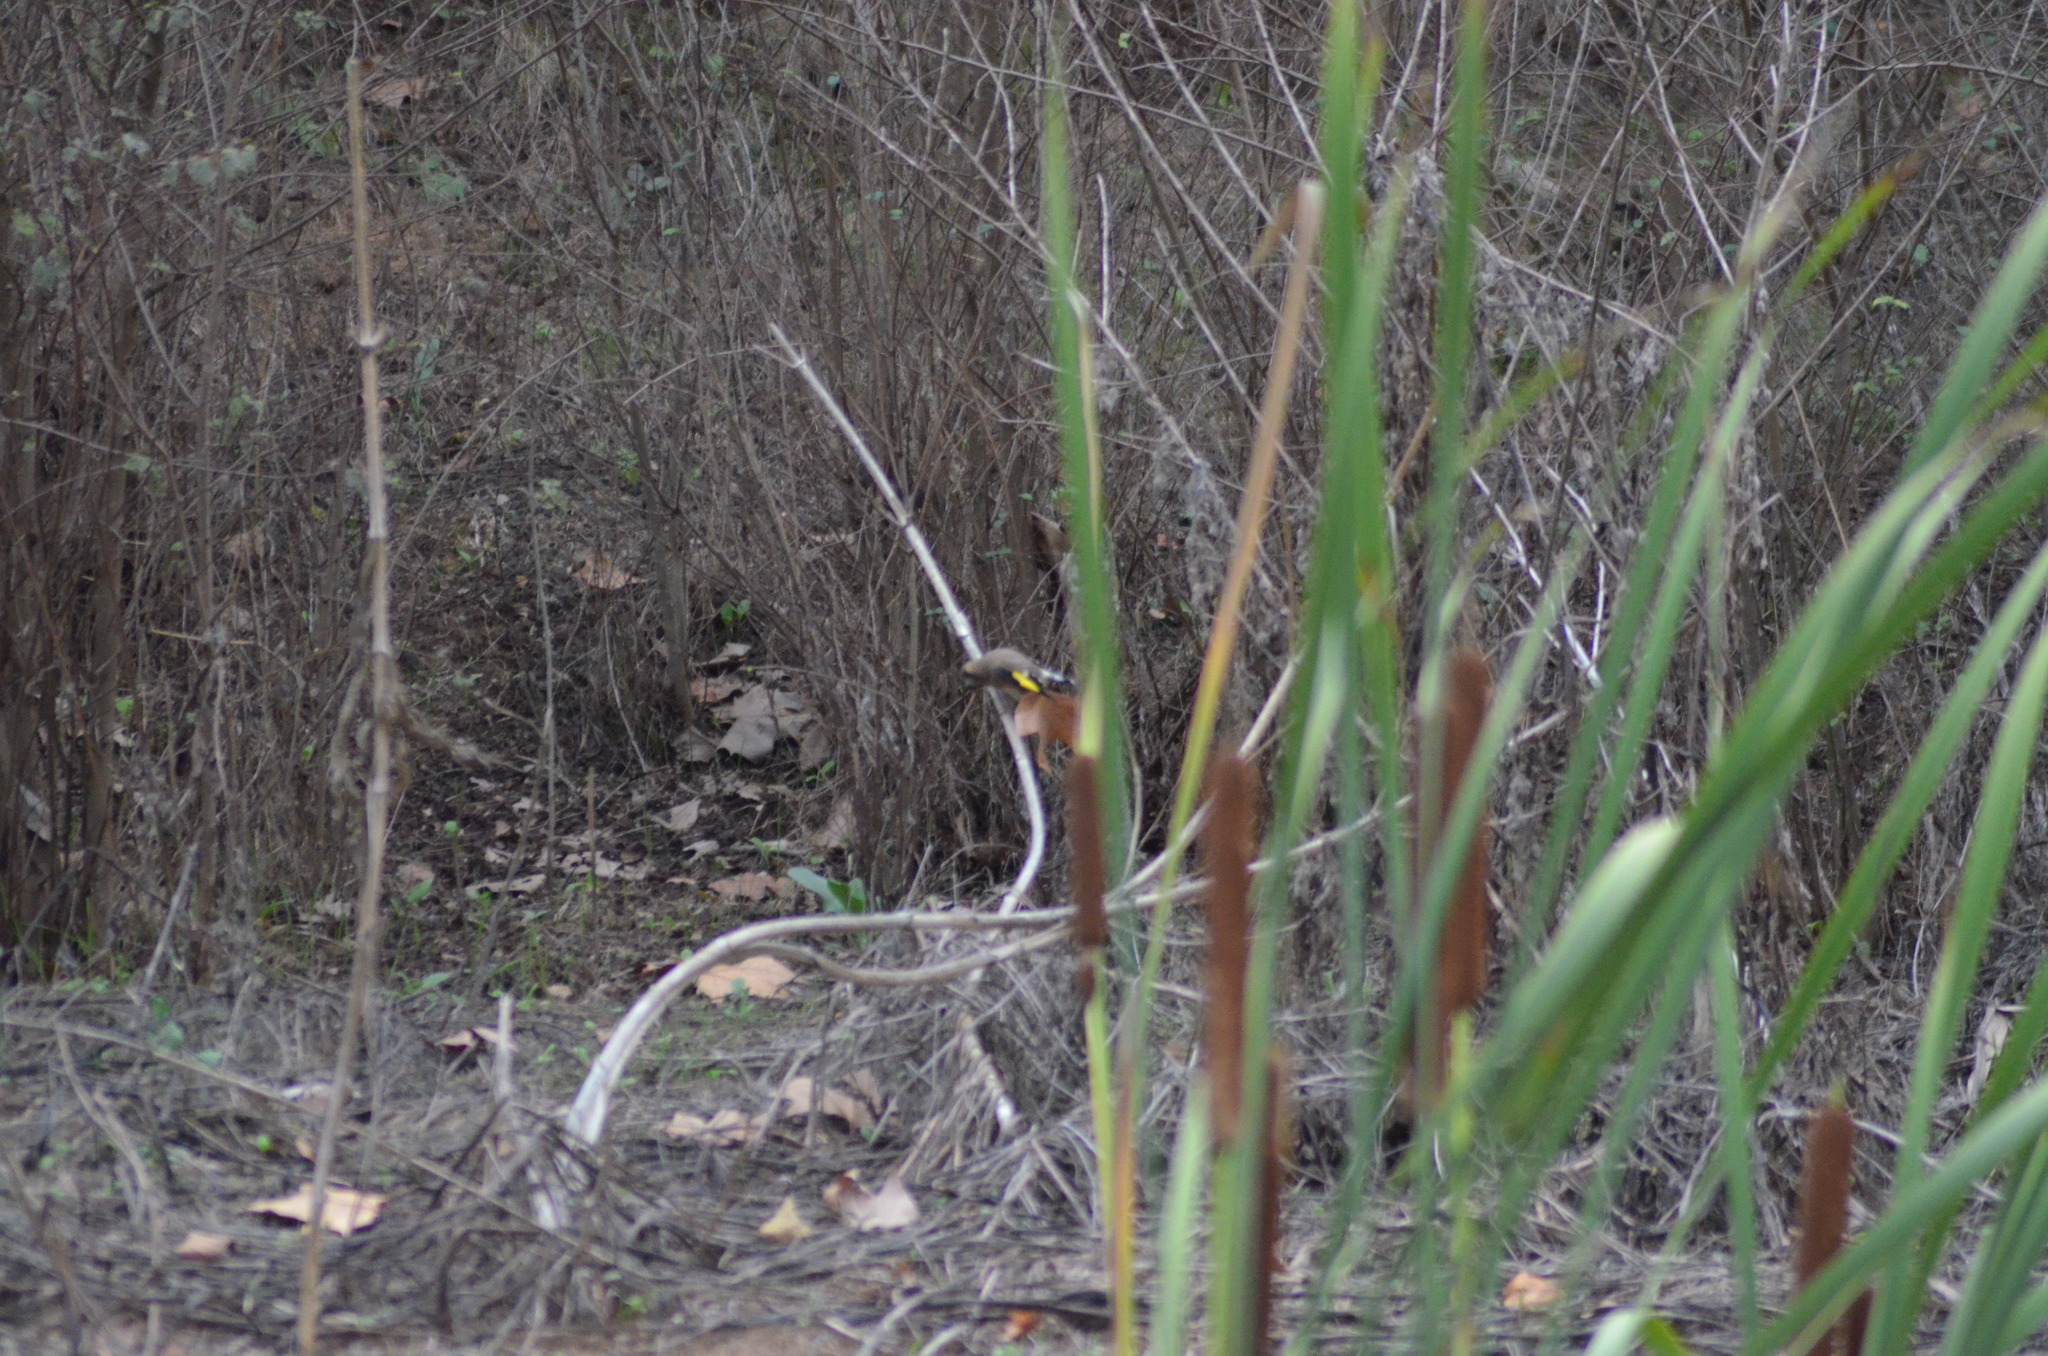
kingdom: Animalia
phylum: Chordata
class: Aves
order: Passeriformes
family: Fringillidae
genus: Carduelis
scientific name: Carduelis carduelis
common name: European goldfinch
